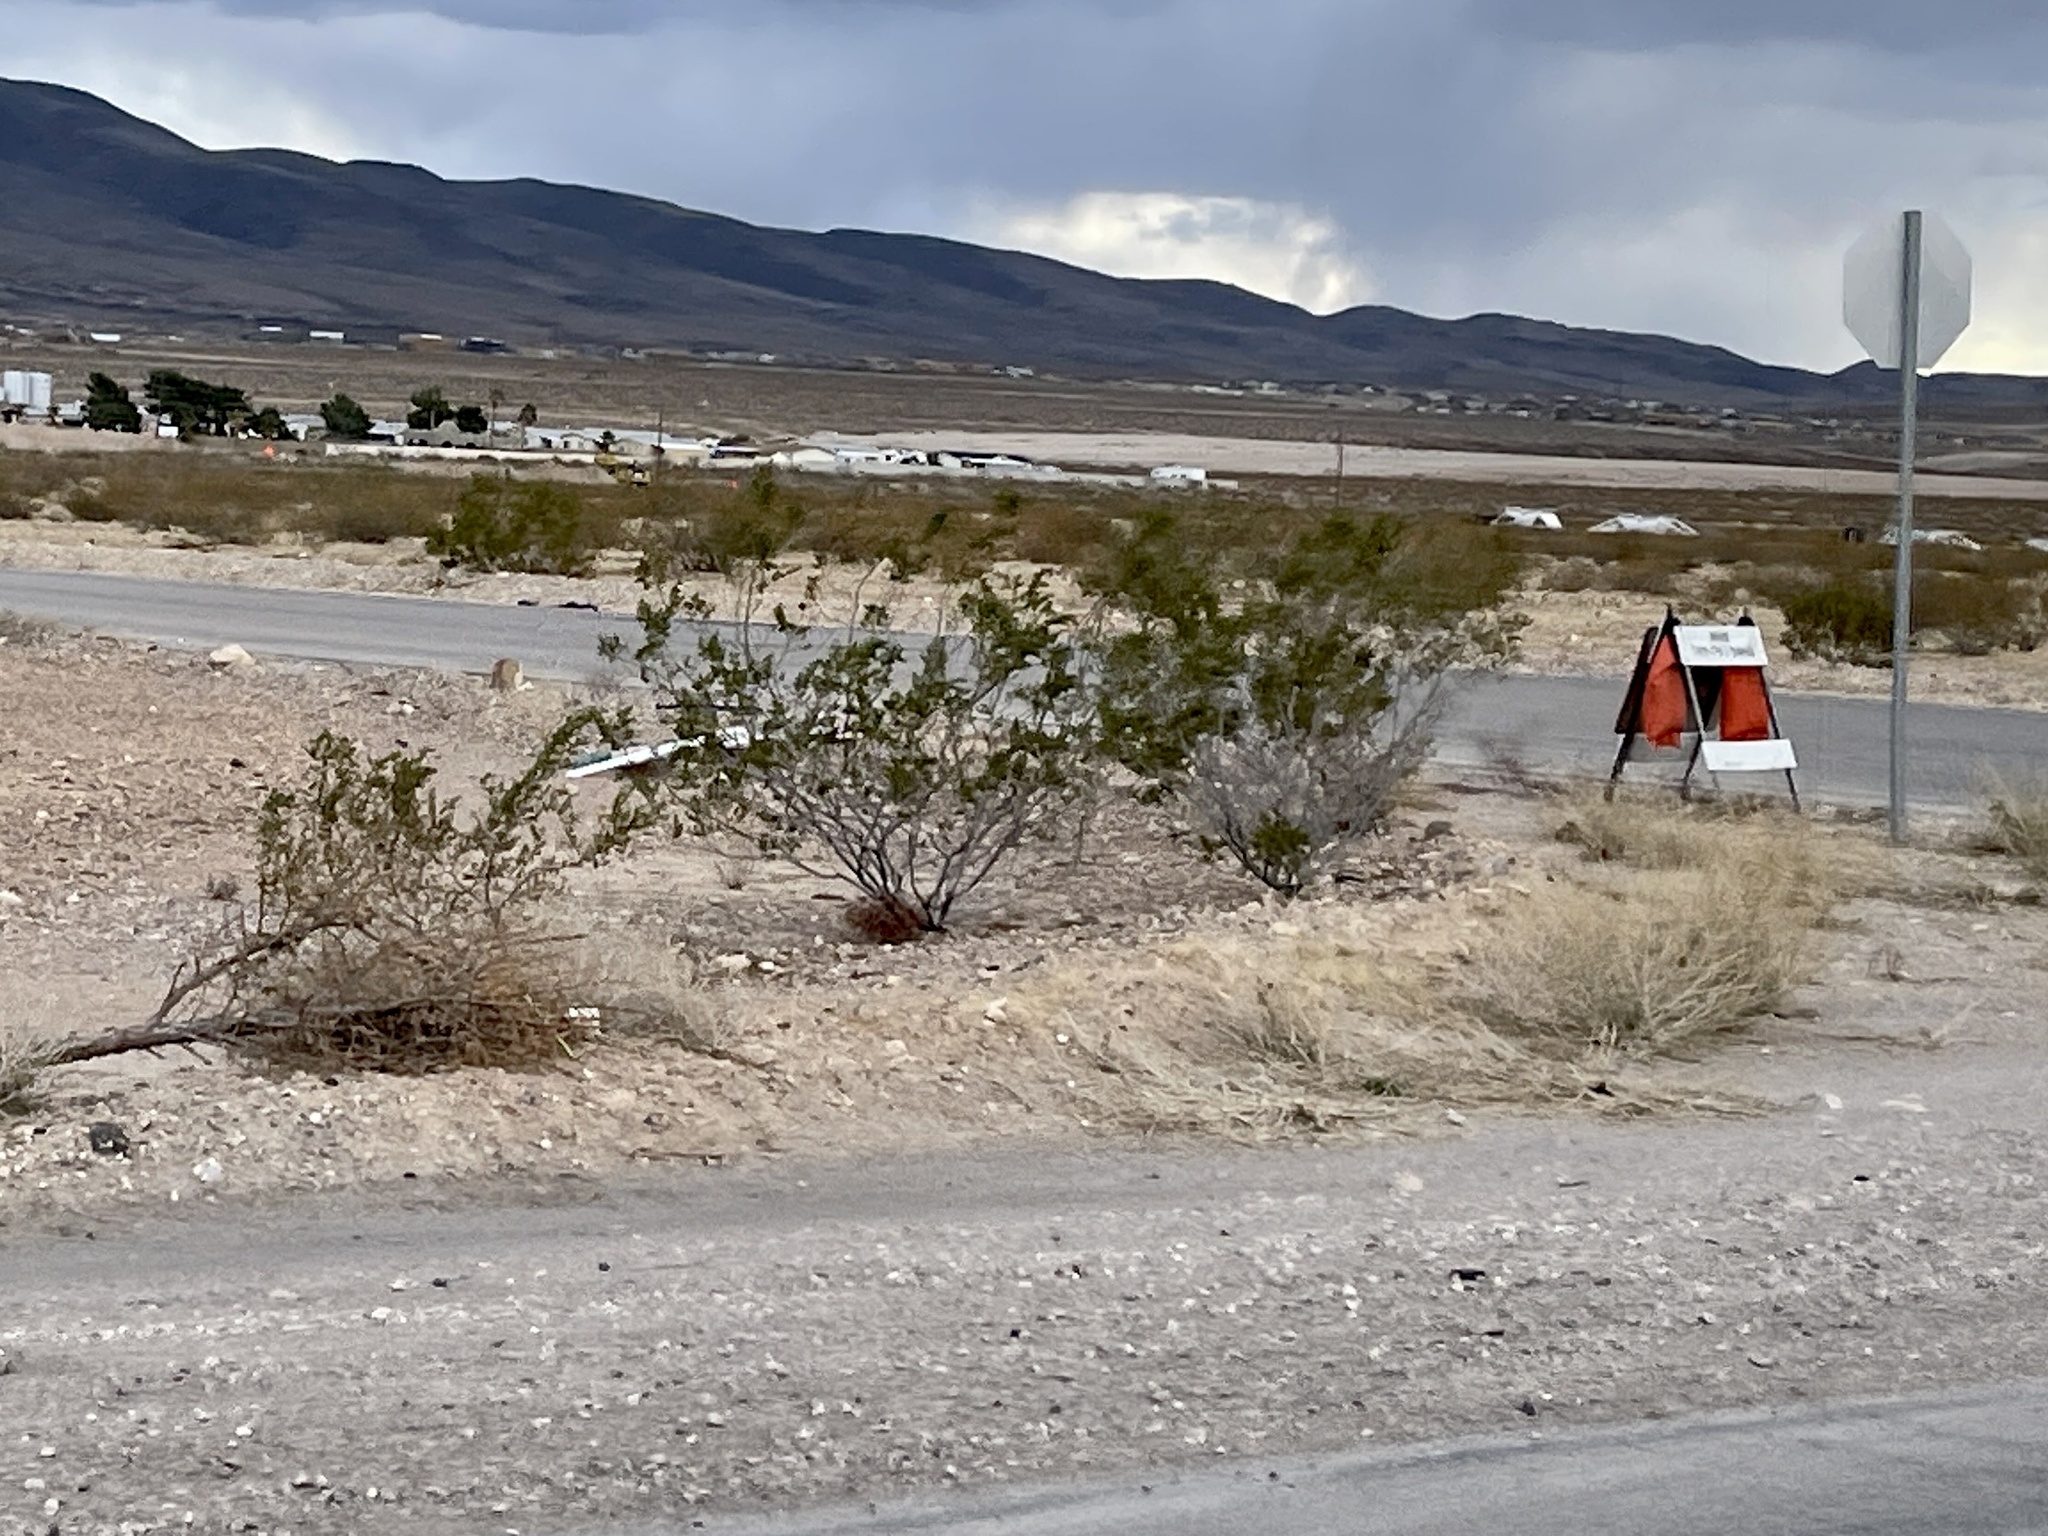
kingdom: Plantae
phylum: Tracheophyta
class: Magnoliopsida
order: Zygophyllales
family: Zygophyllaceae
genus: Larrea
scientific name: Larrea tridentata
